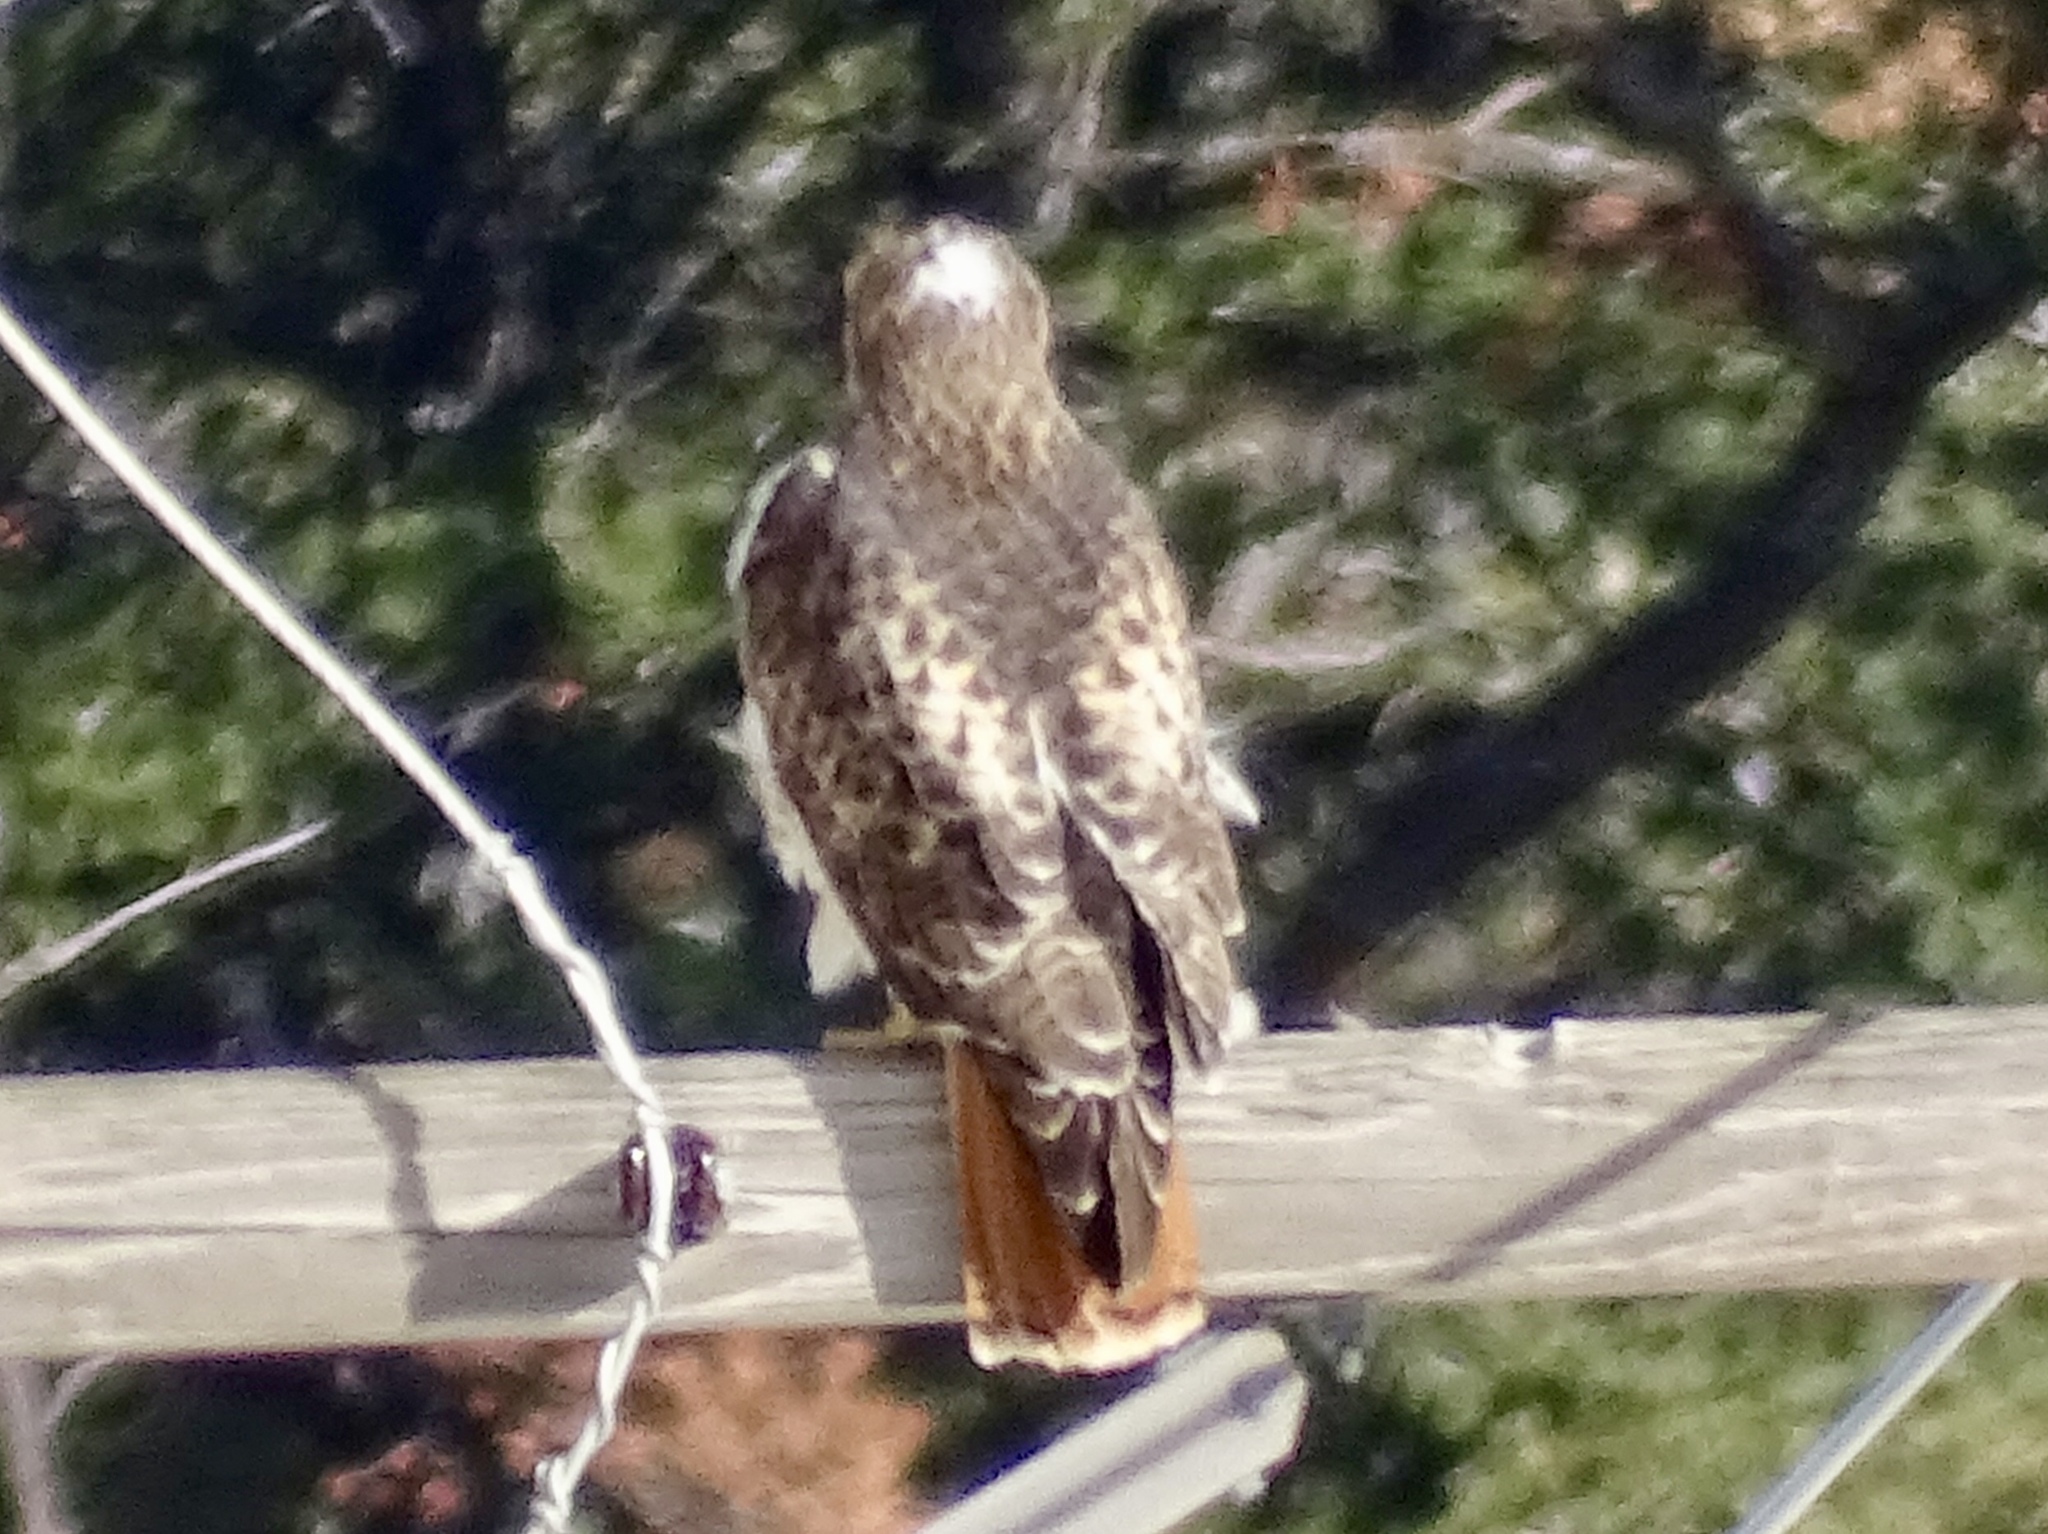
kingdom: Animalia
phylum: Chordata
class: Aves
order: Accipitriformes
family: Accipitridae
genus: Buteo
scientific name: Buteo jamaicensis
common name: Red-tailed hawk
